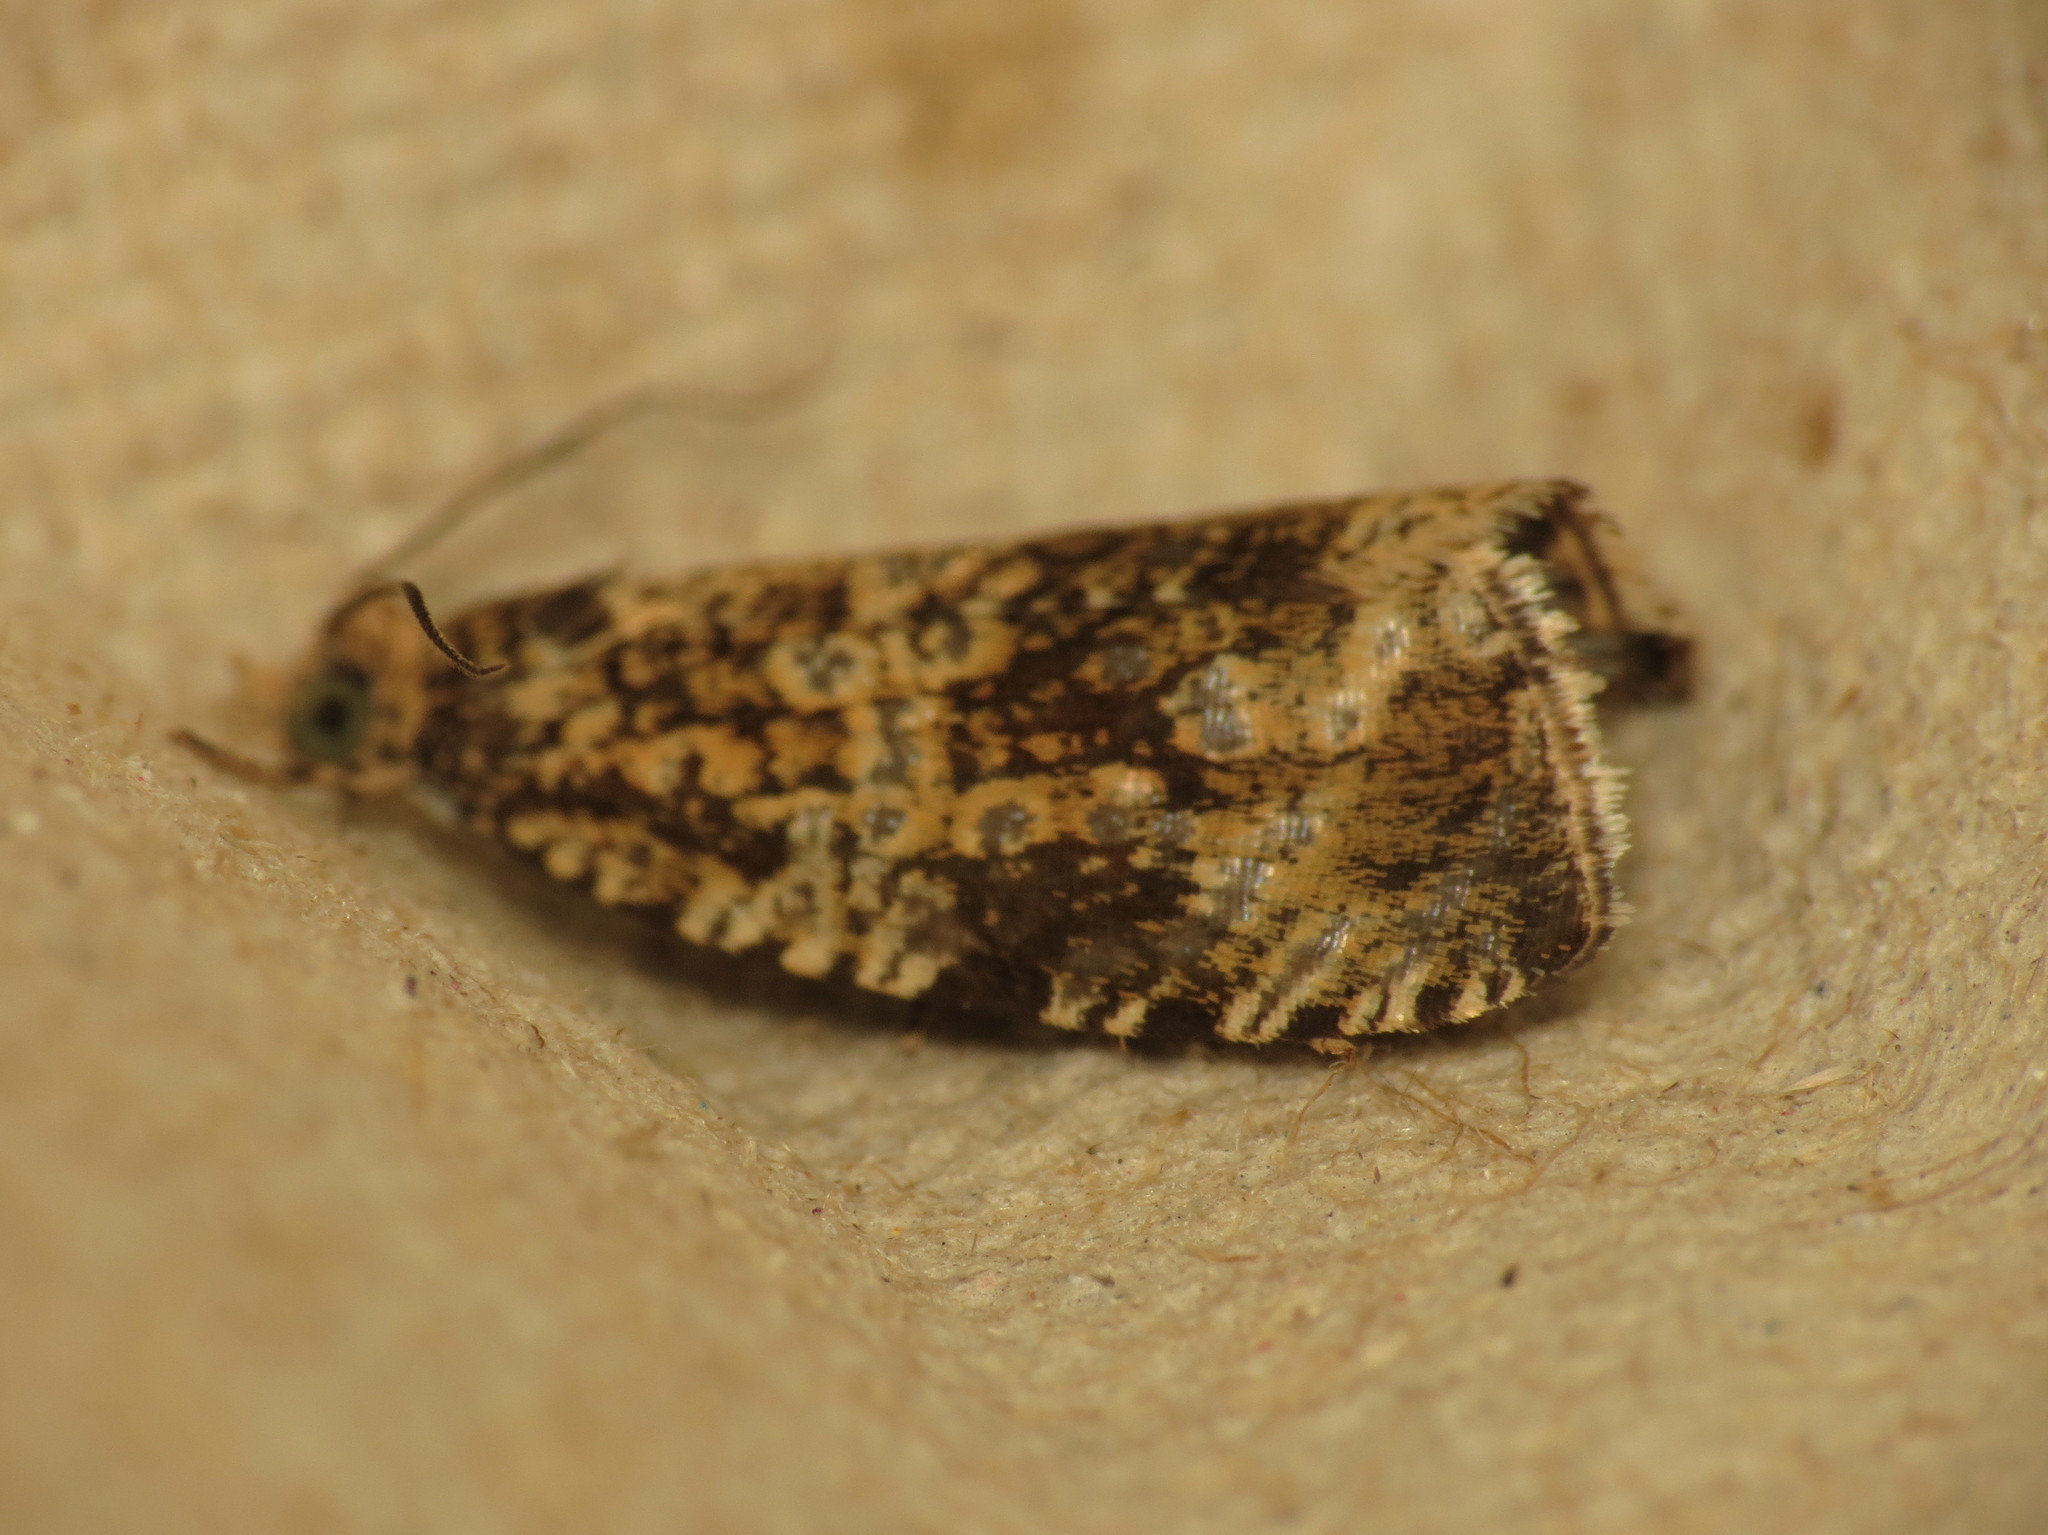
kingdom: Animalia
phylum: Arthropoda
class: Insecta
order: Lepidoptera
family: Tortricidae
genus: Syricoris
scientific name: Syricoris lacunana
